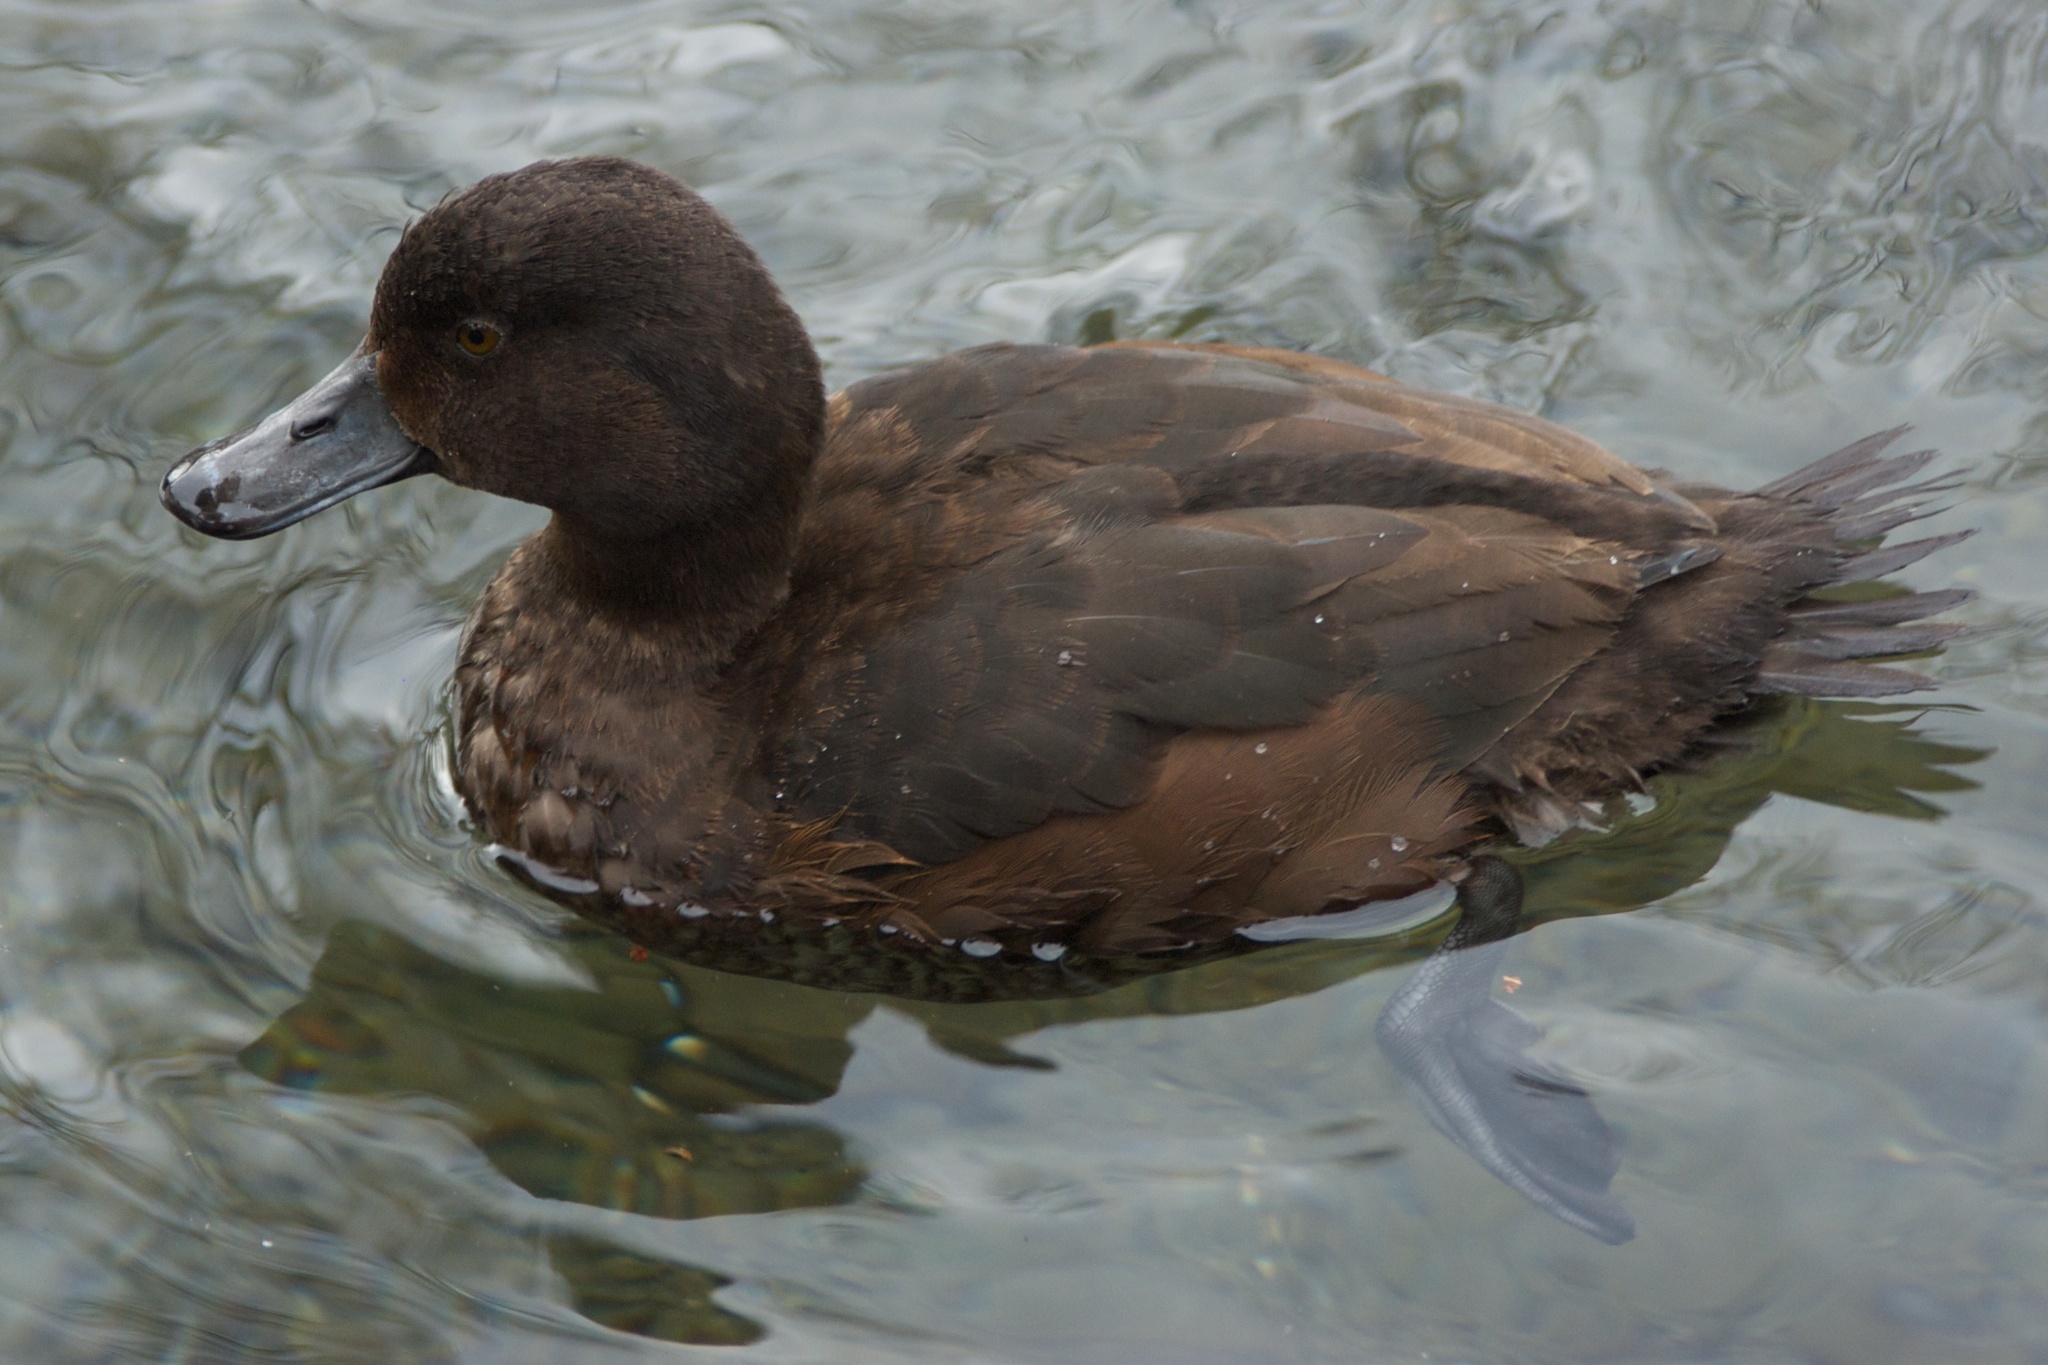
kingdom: Animalia
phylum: Chordata
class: Aves
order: Anseriformes
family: Anatidae
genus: Aythya
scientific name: Aythya novaeseelandiae
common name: New zealand scaup
